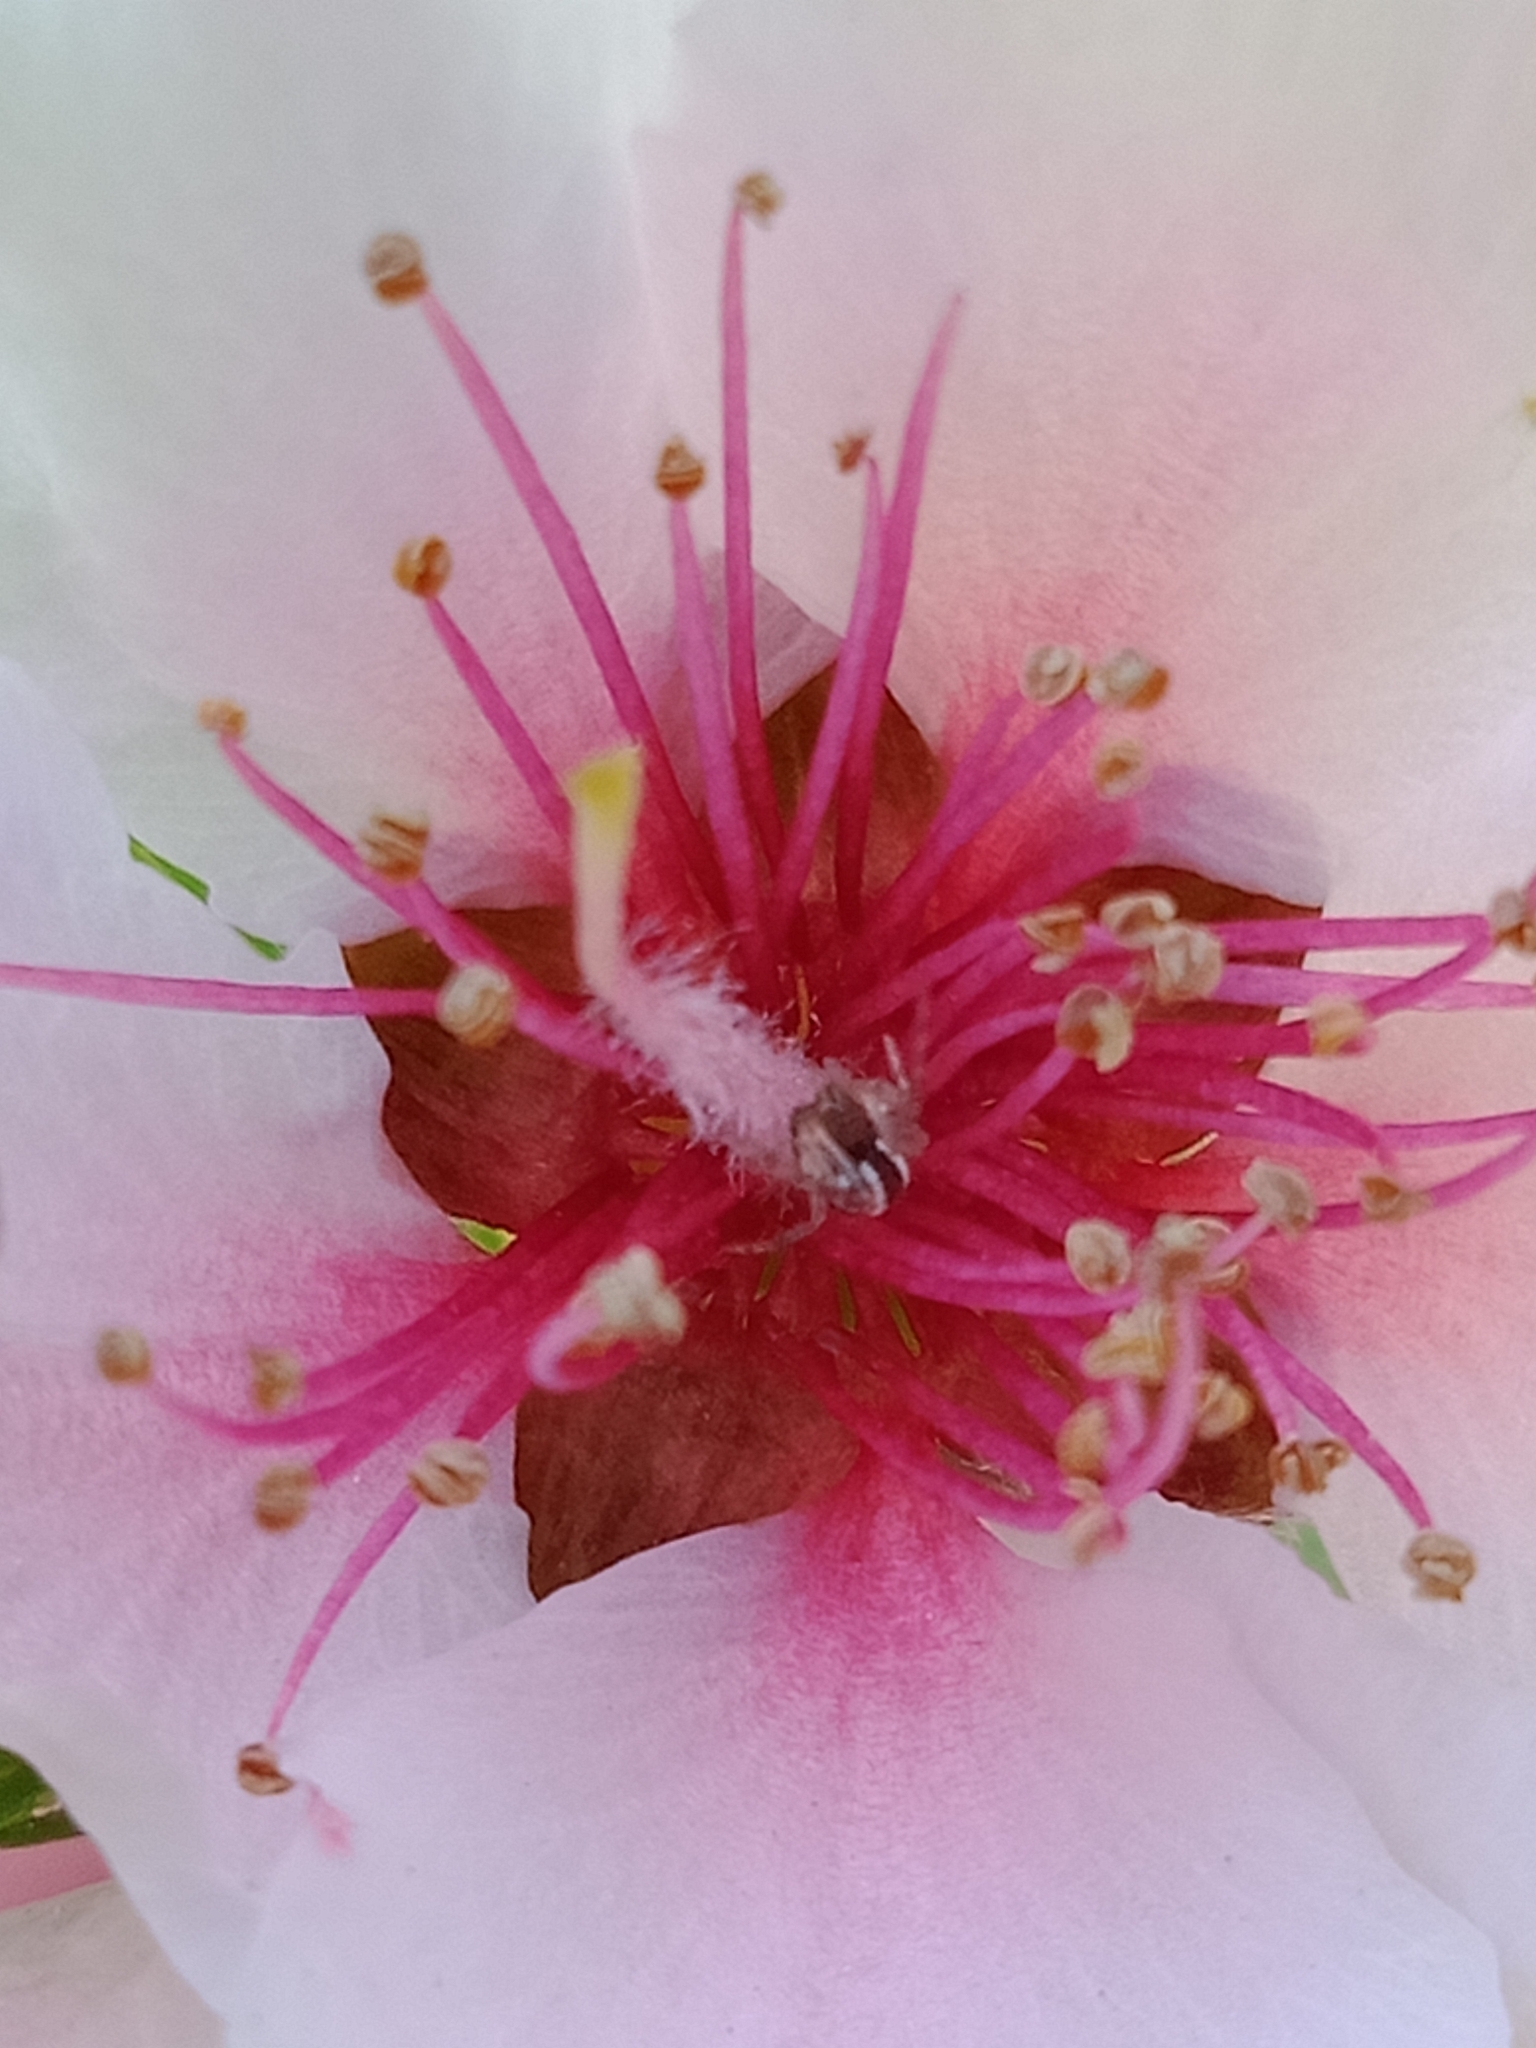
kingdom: Animalia
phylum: Arthropoda
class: Arachnida
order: Araneae
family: Theridiidae
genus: Theridion
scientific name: Theridion pyramidale
